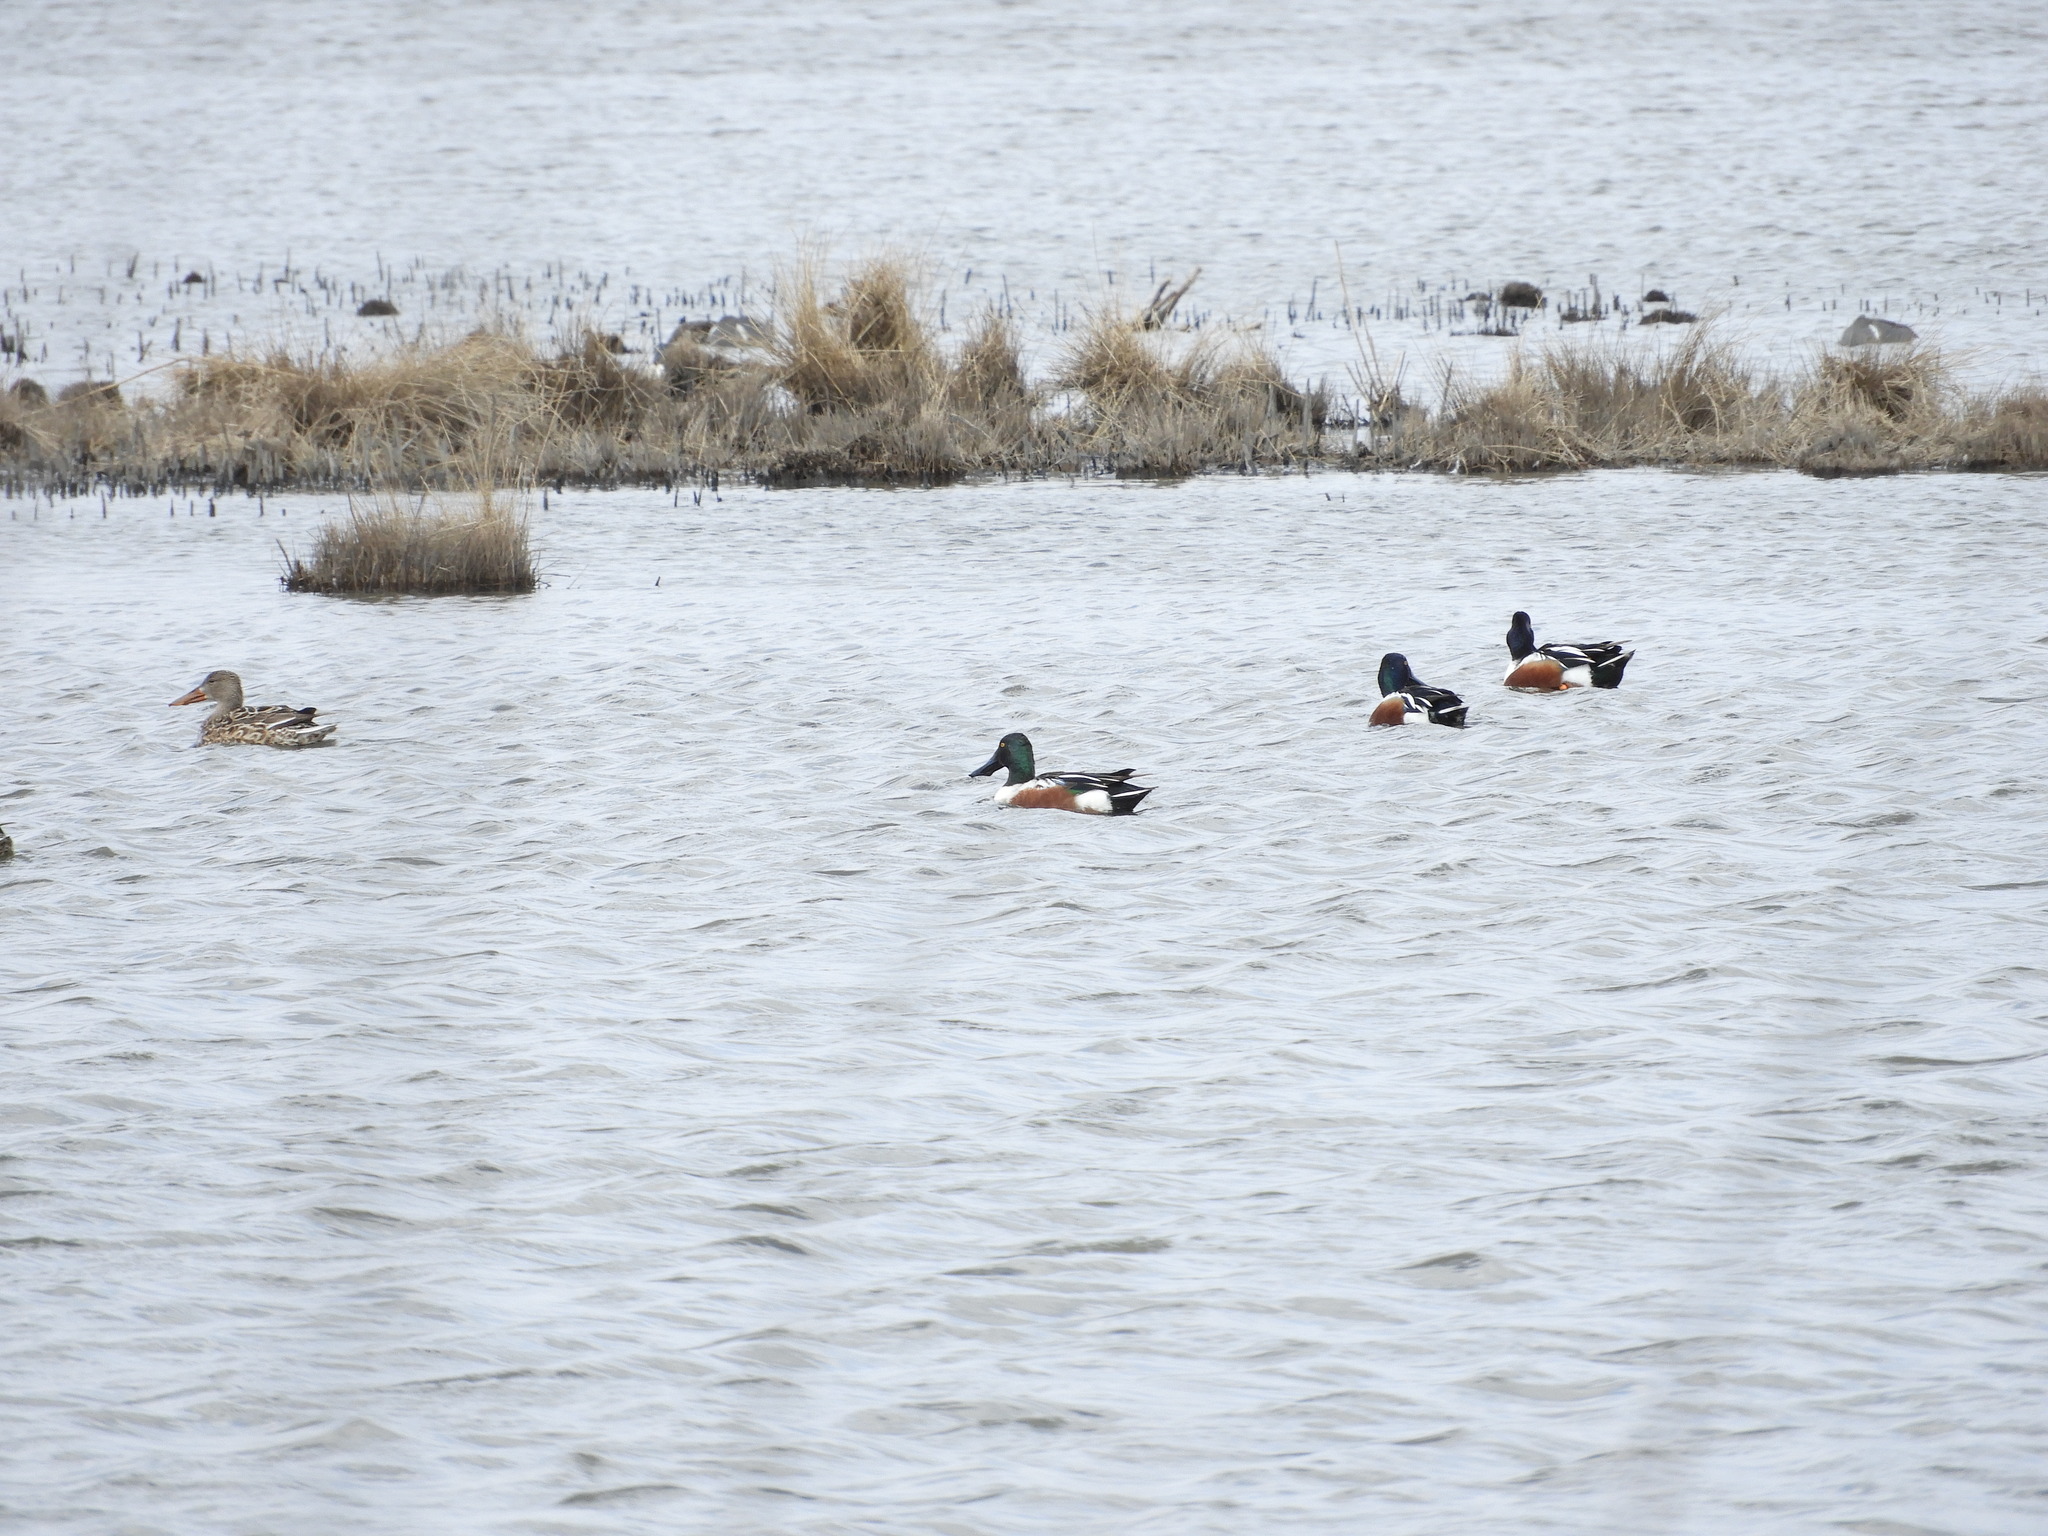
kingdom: Animalia
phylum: Chordata
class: Aves
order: Anseriformes
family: Anatidae
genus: Spatula
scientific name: Spatula clypeata
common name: Northern shoveler
